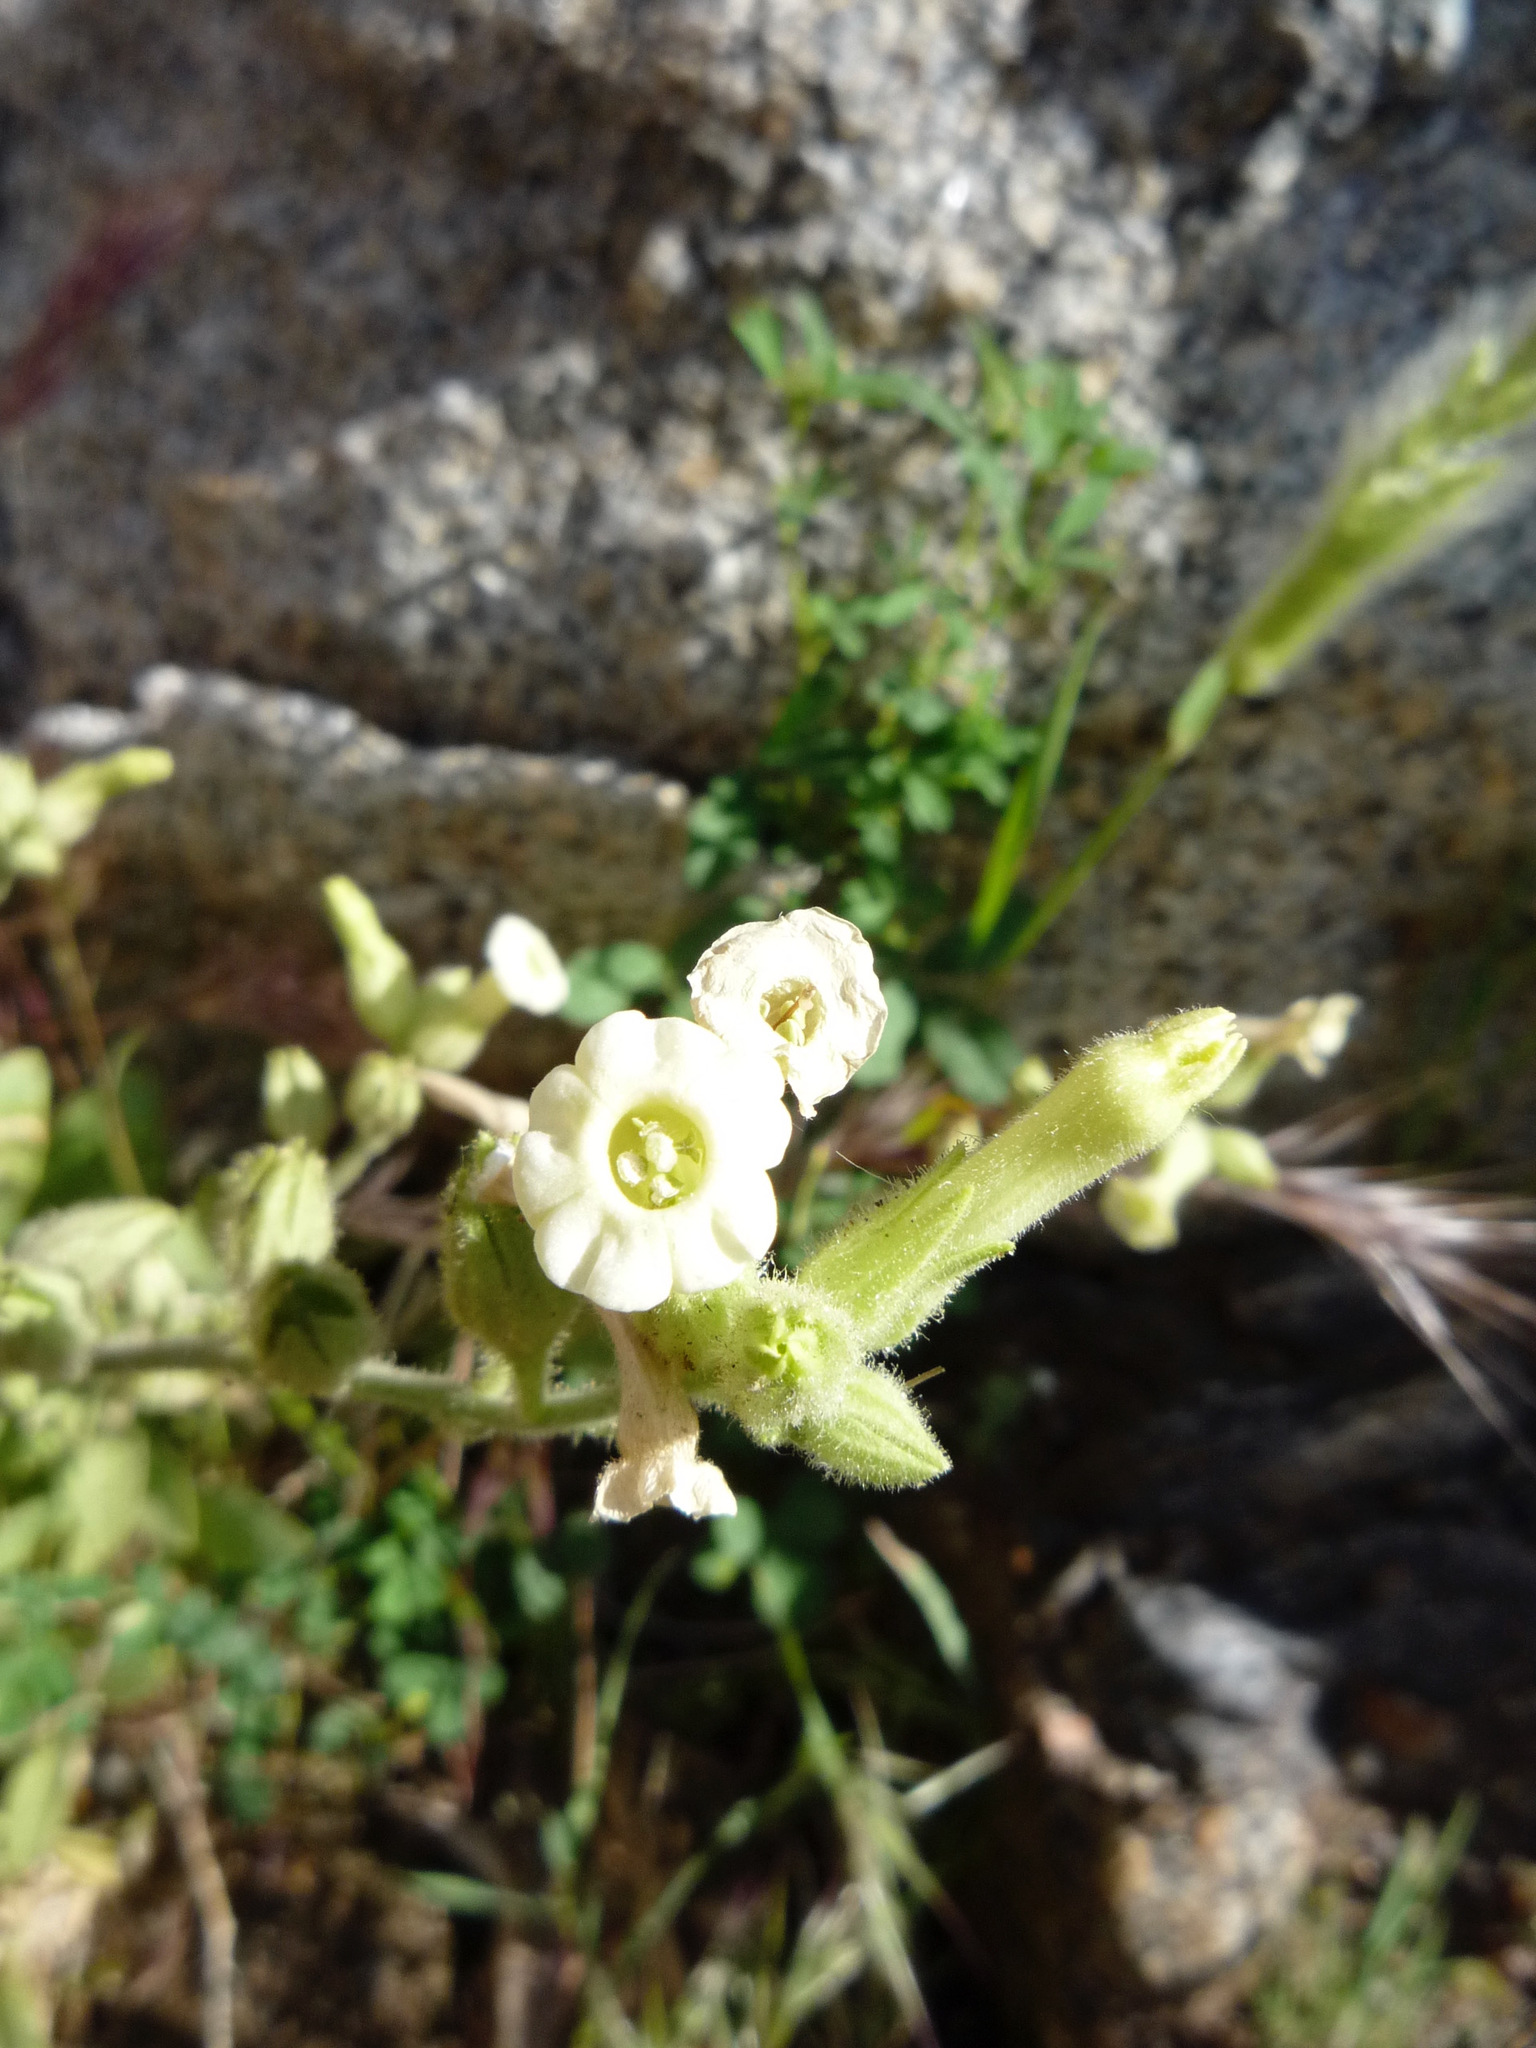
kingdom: Plantae
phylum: Tracheophyta
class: Magnoliopsida
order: Solanales
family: Solanaceae
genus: Nicotiana
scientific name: Nicotiana obtusifolia
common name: Desert tobacco
